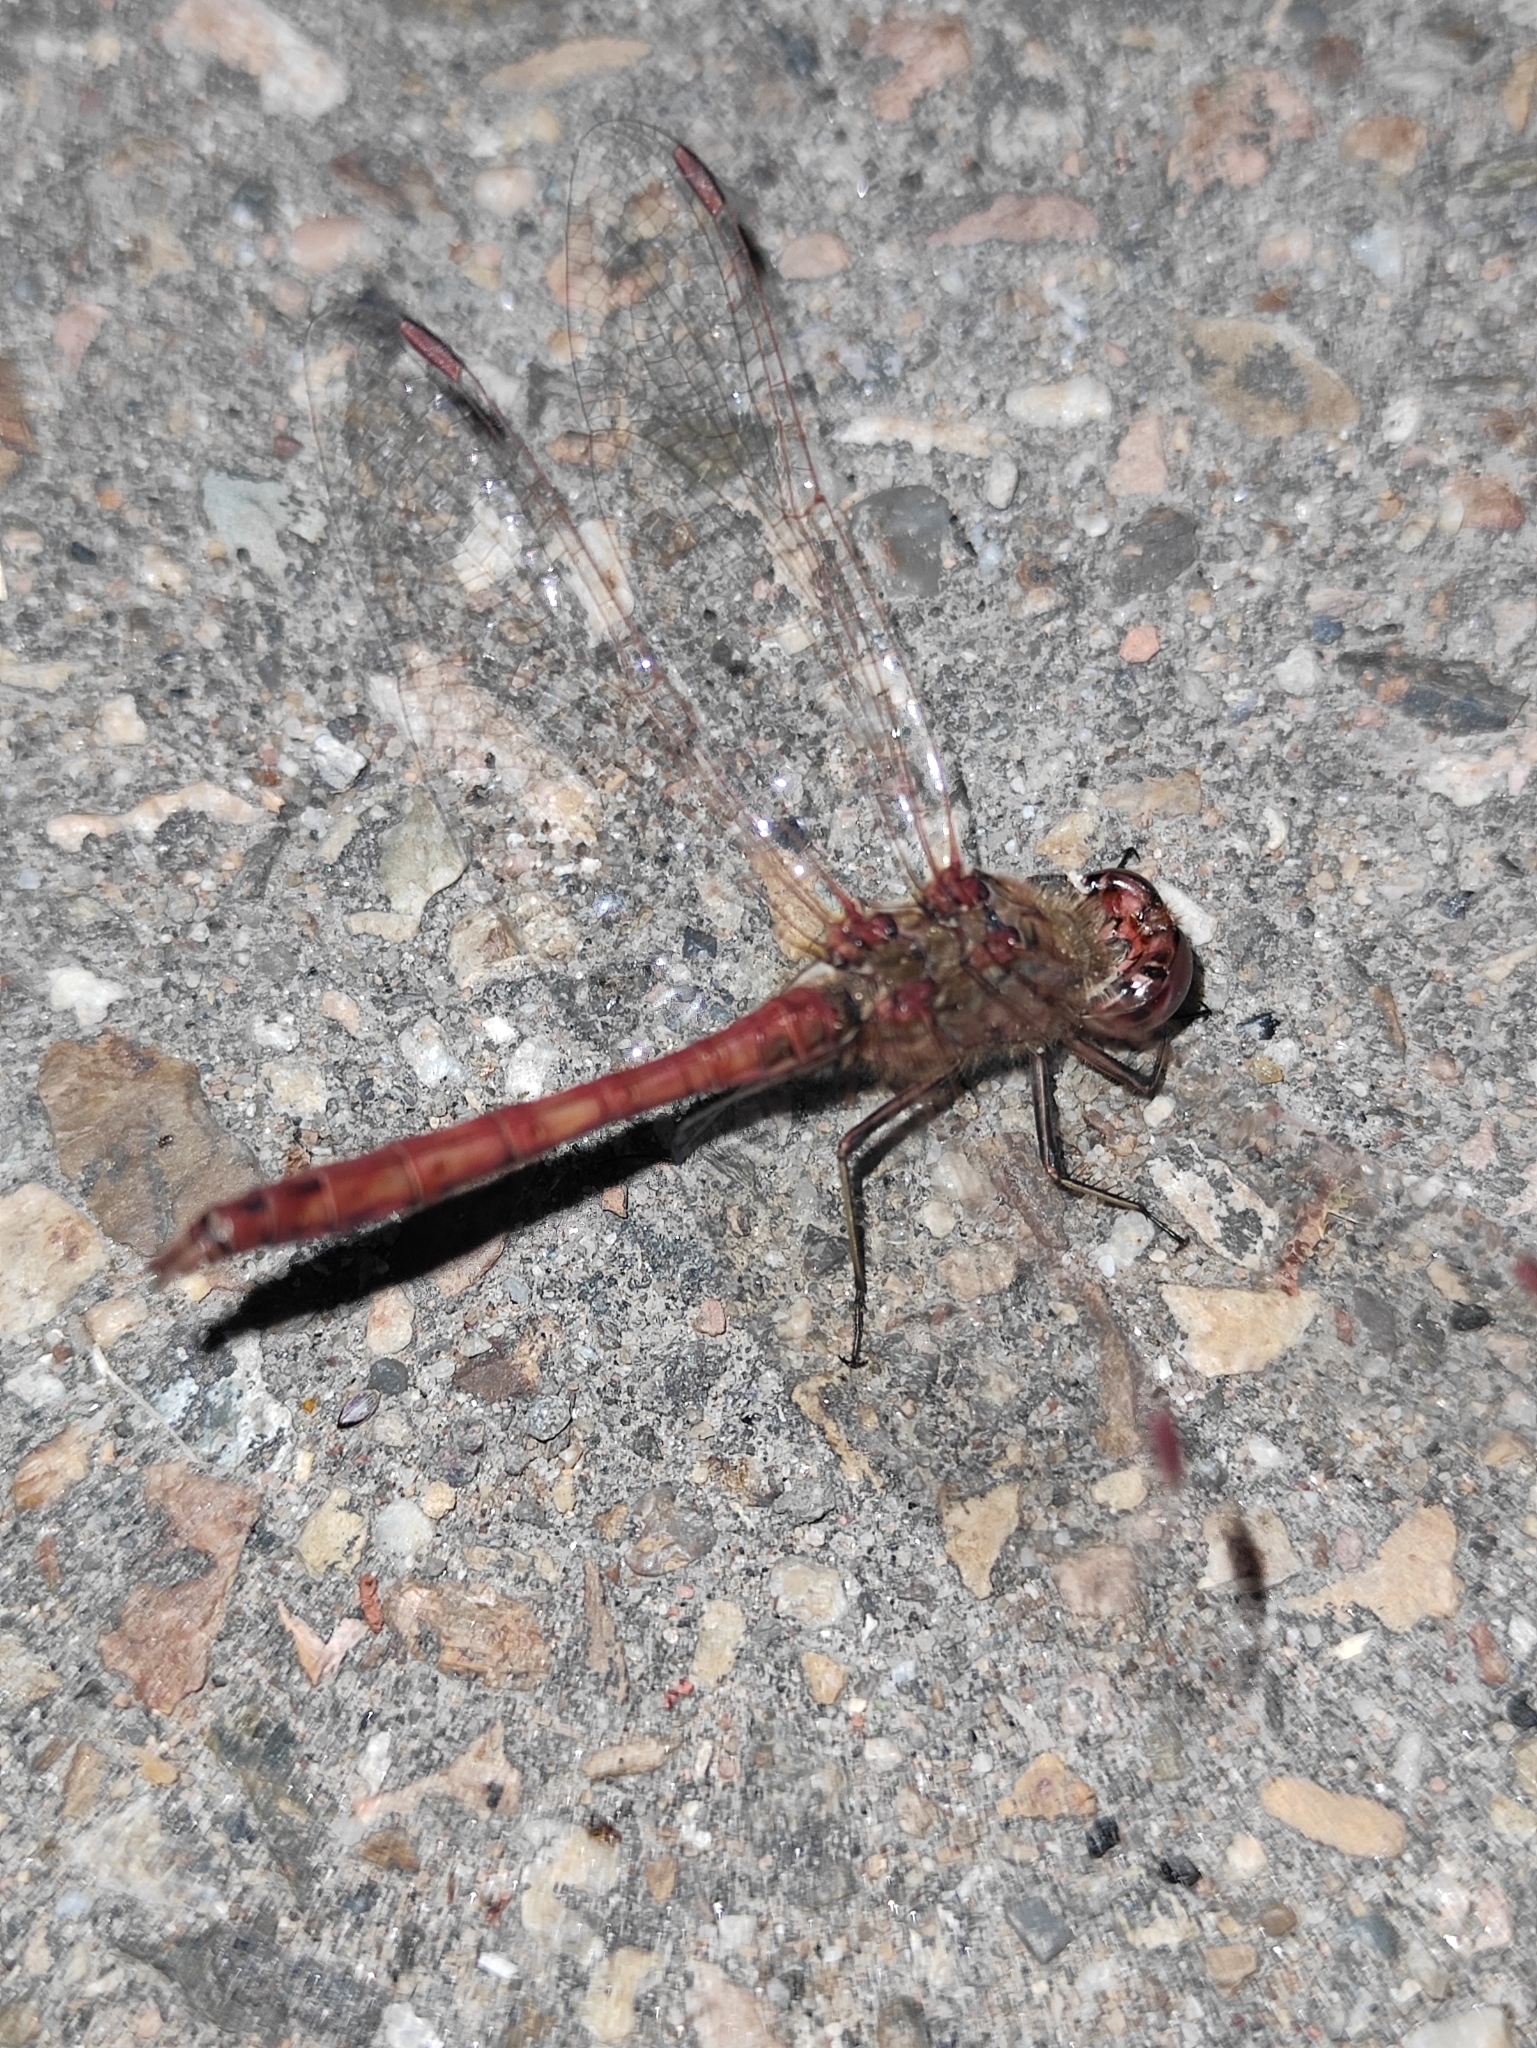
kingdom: Animalia
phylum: Arthropoda
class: Insecta
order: Odonata
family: Libellulidae
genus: Sympetrum
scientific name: Sympetrum vulgatum
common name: Vagrant darter
